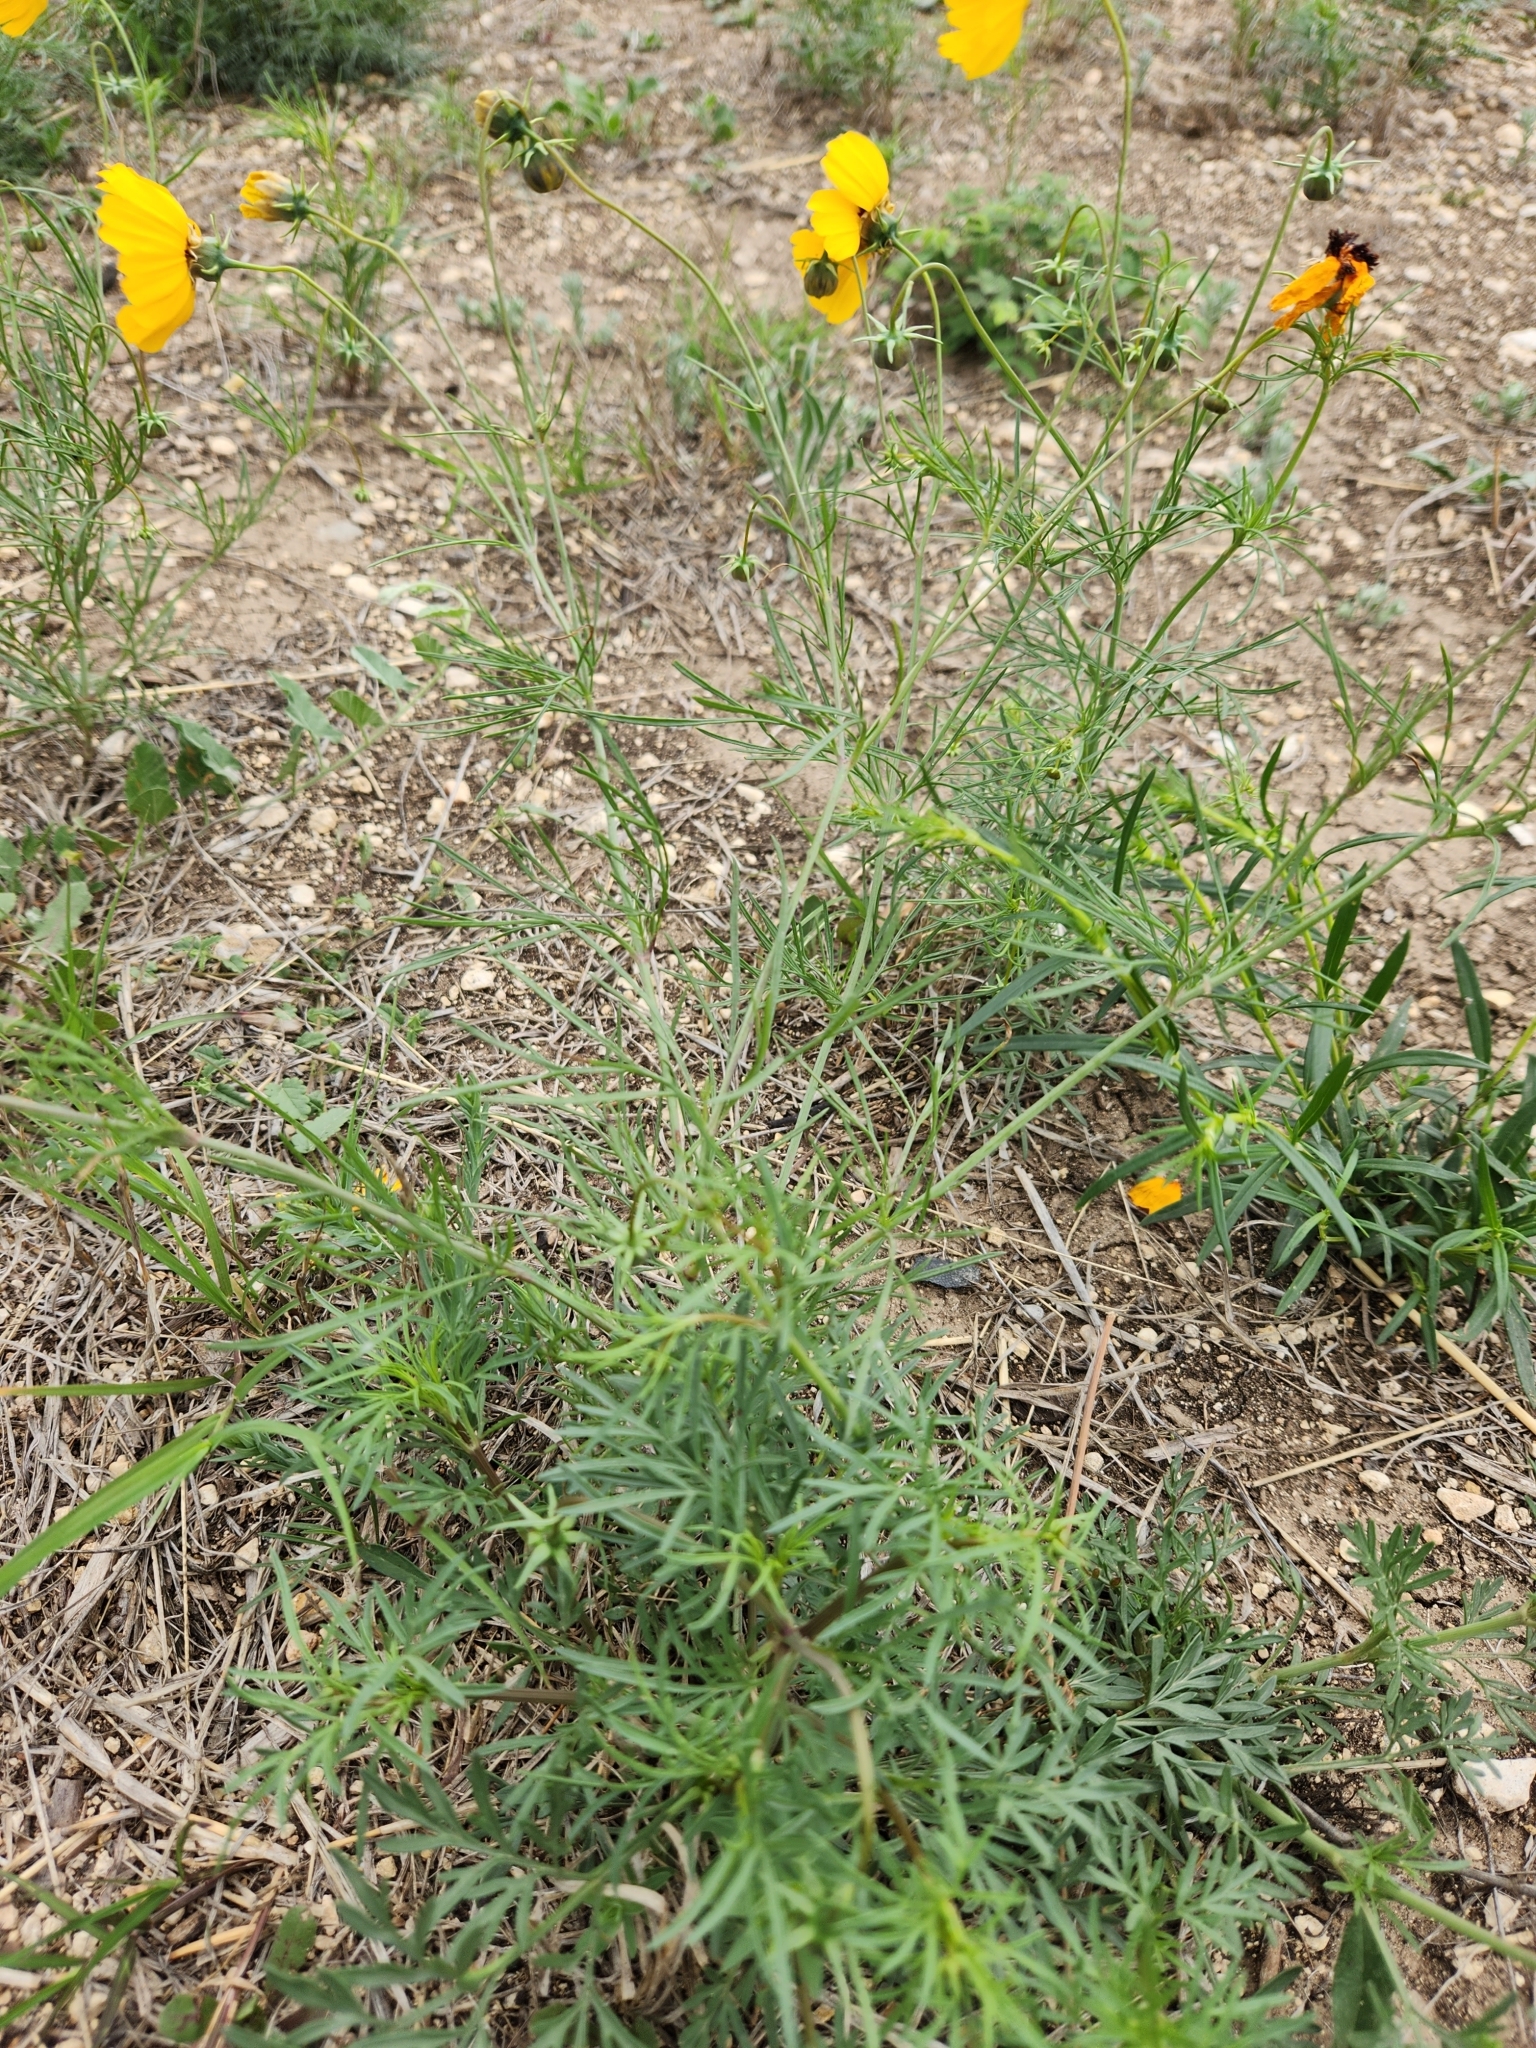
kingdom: Plantae
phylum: Tracheophyta
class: Magnoliopsida
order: Asterales
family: Asteraceae
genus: Thelesperma
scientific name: Thelesperma filifolium
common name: Stiff greenthread
